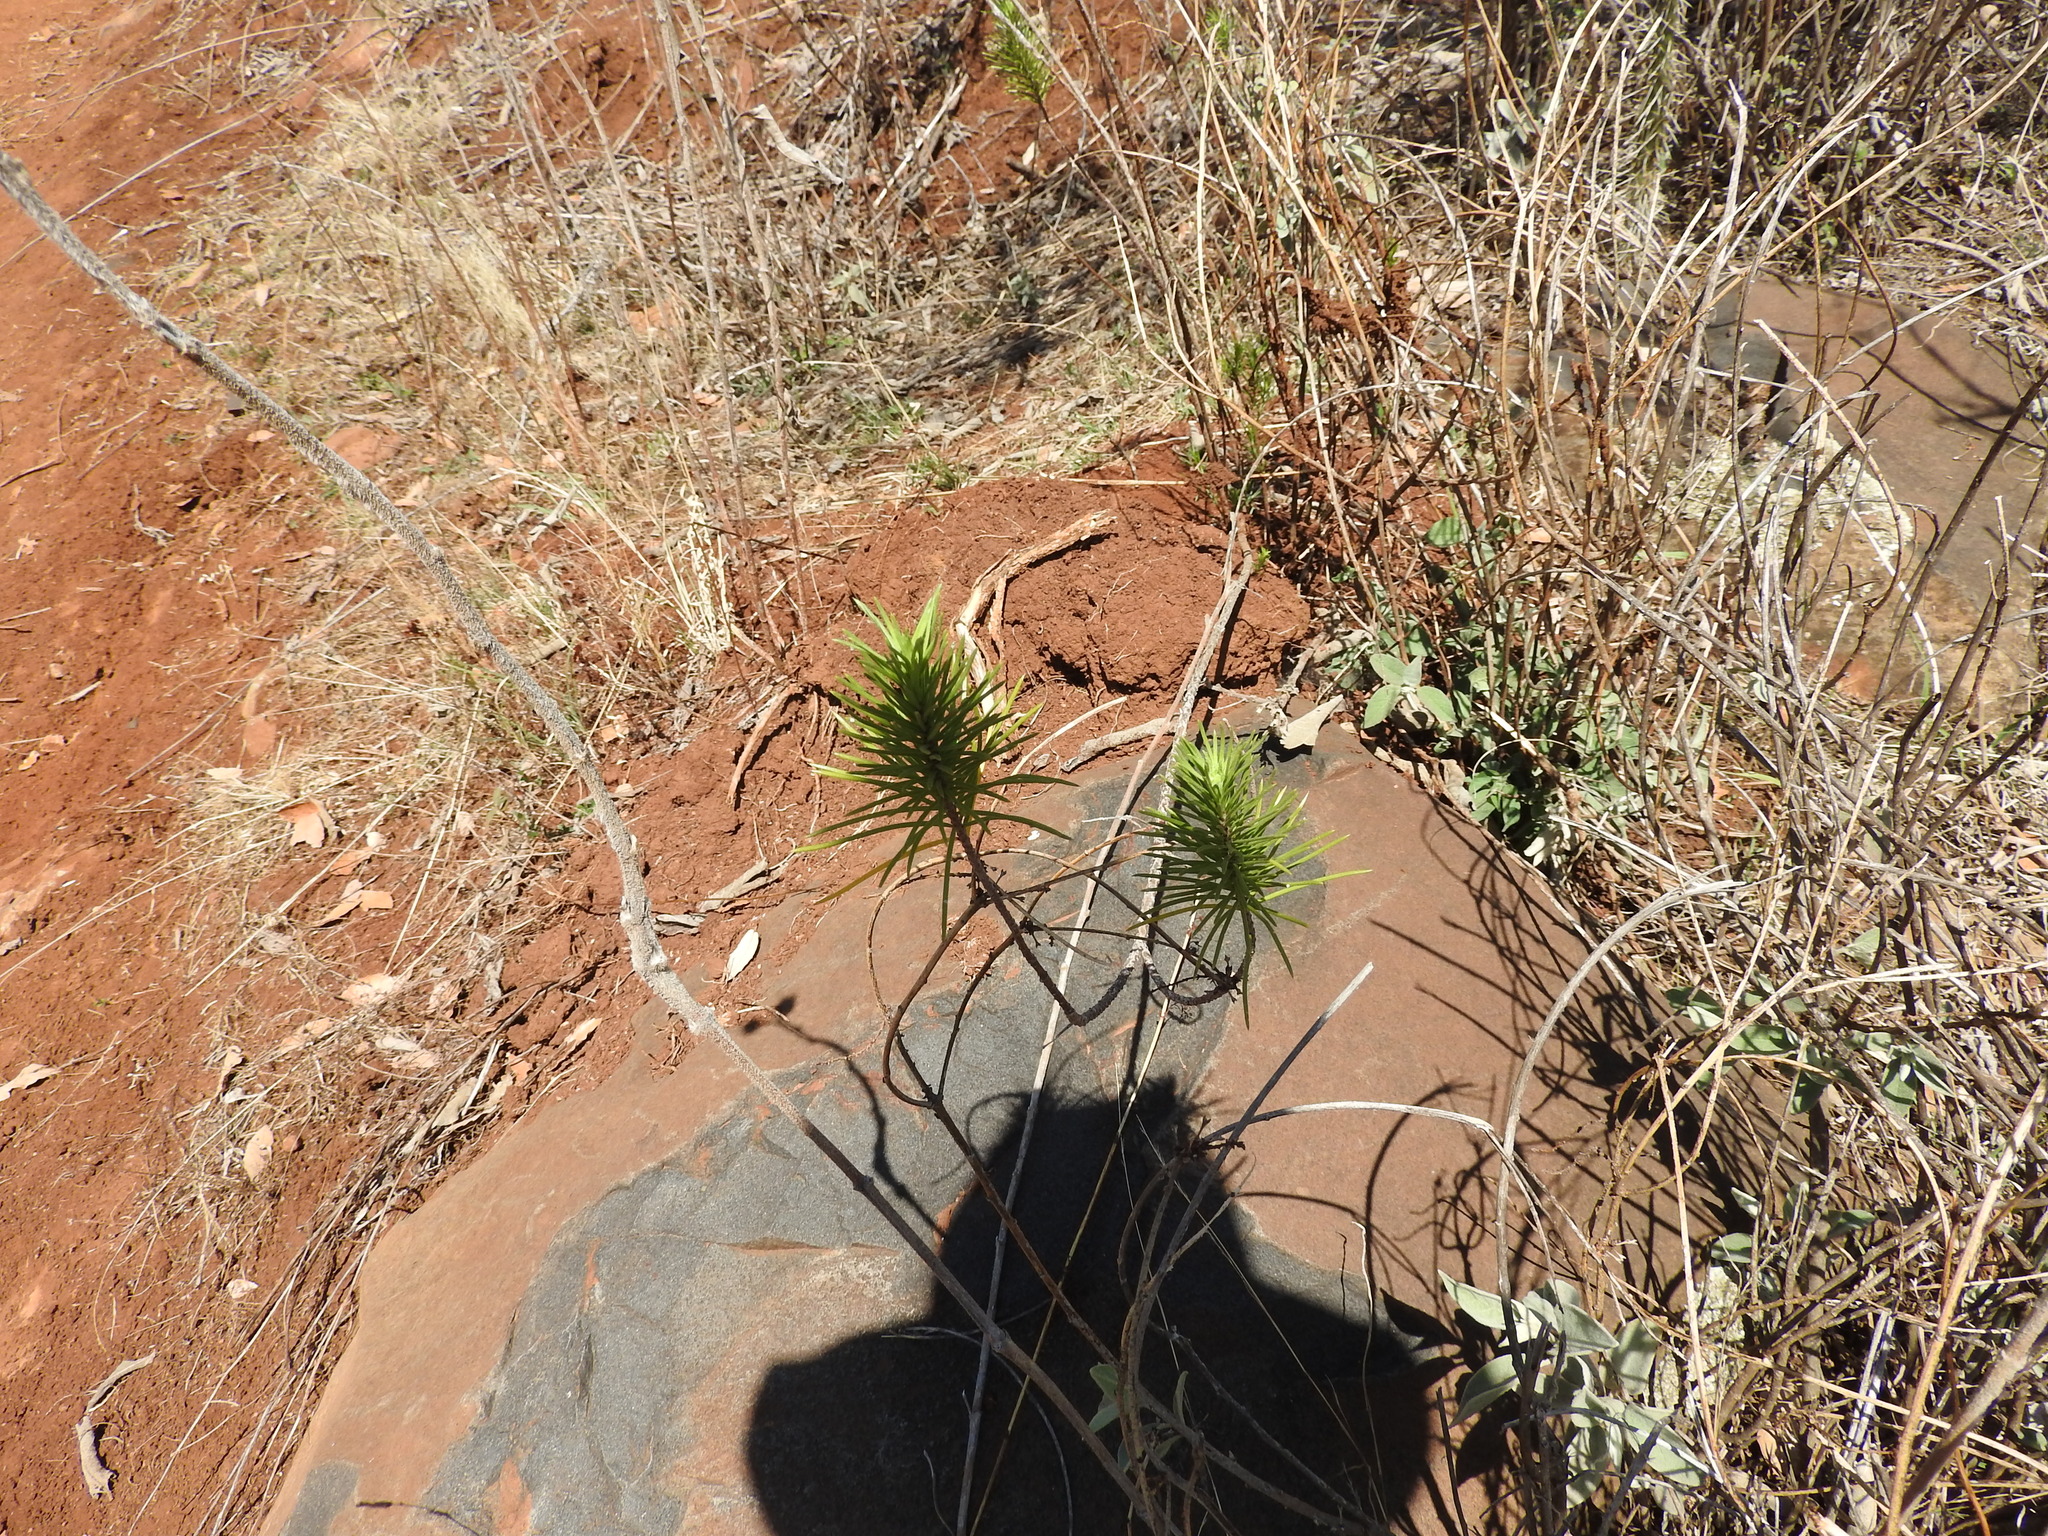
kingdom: Plantae
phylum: Tracheophyta
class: Magnoliopsida
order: Gentianales
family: Apocynaceae
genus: Asclepias
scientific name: Asclepias linaria
